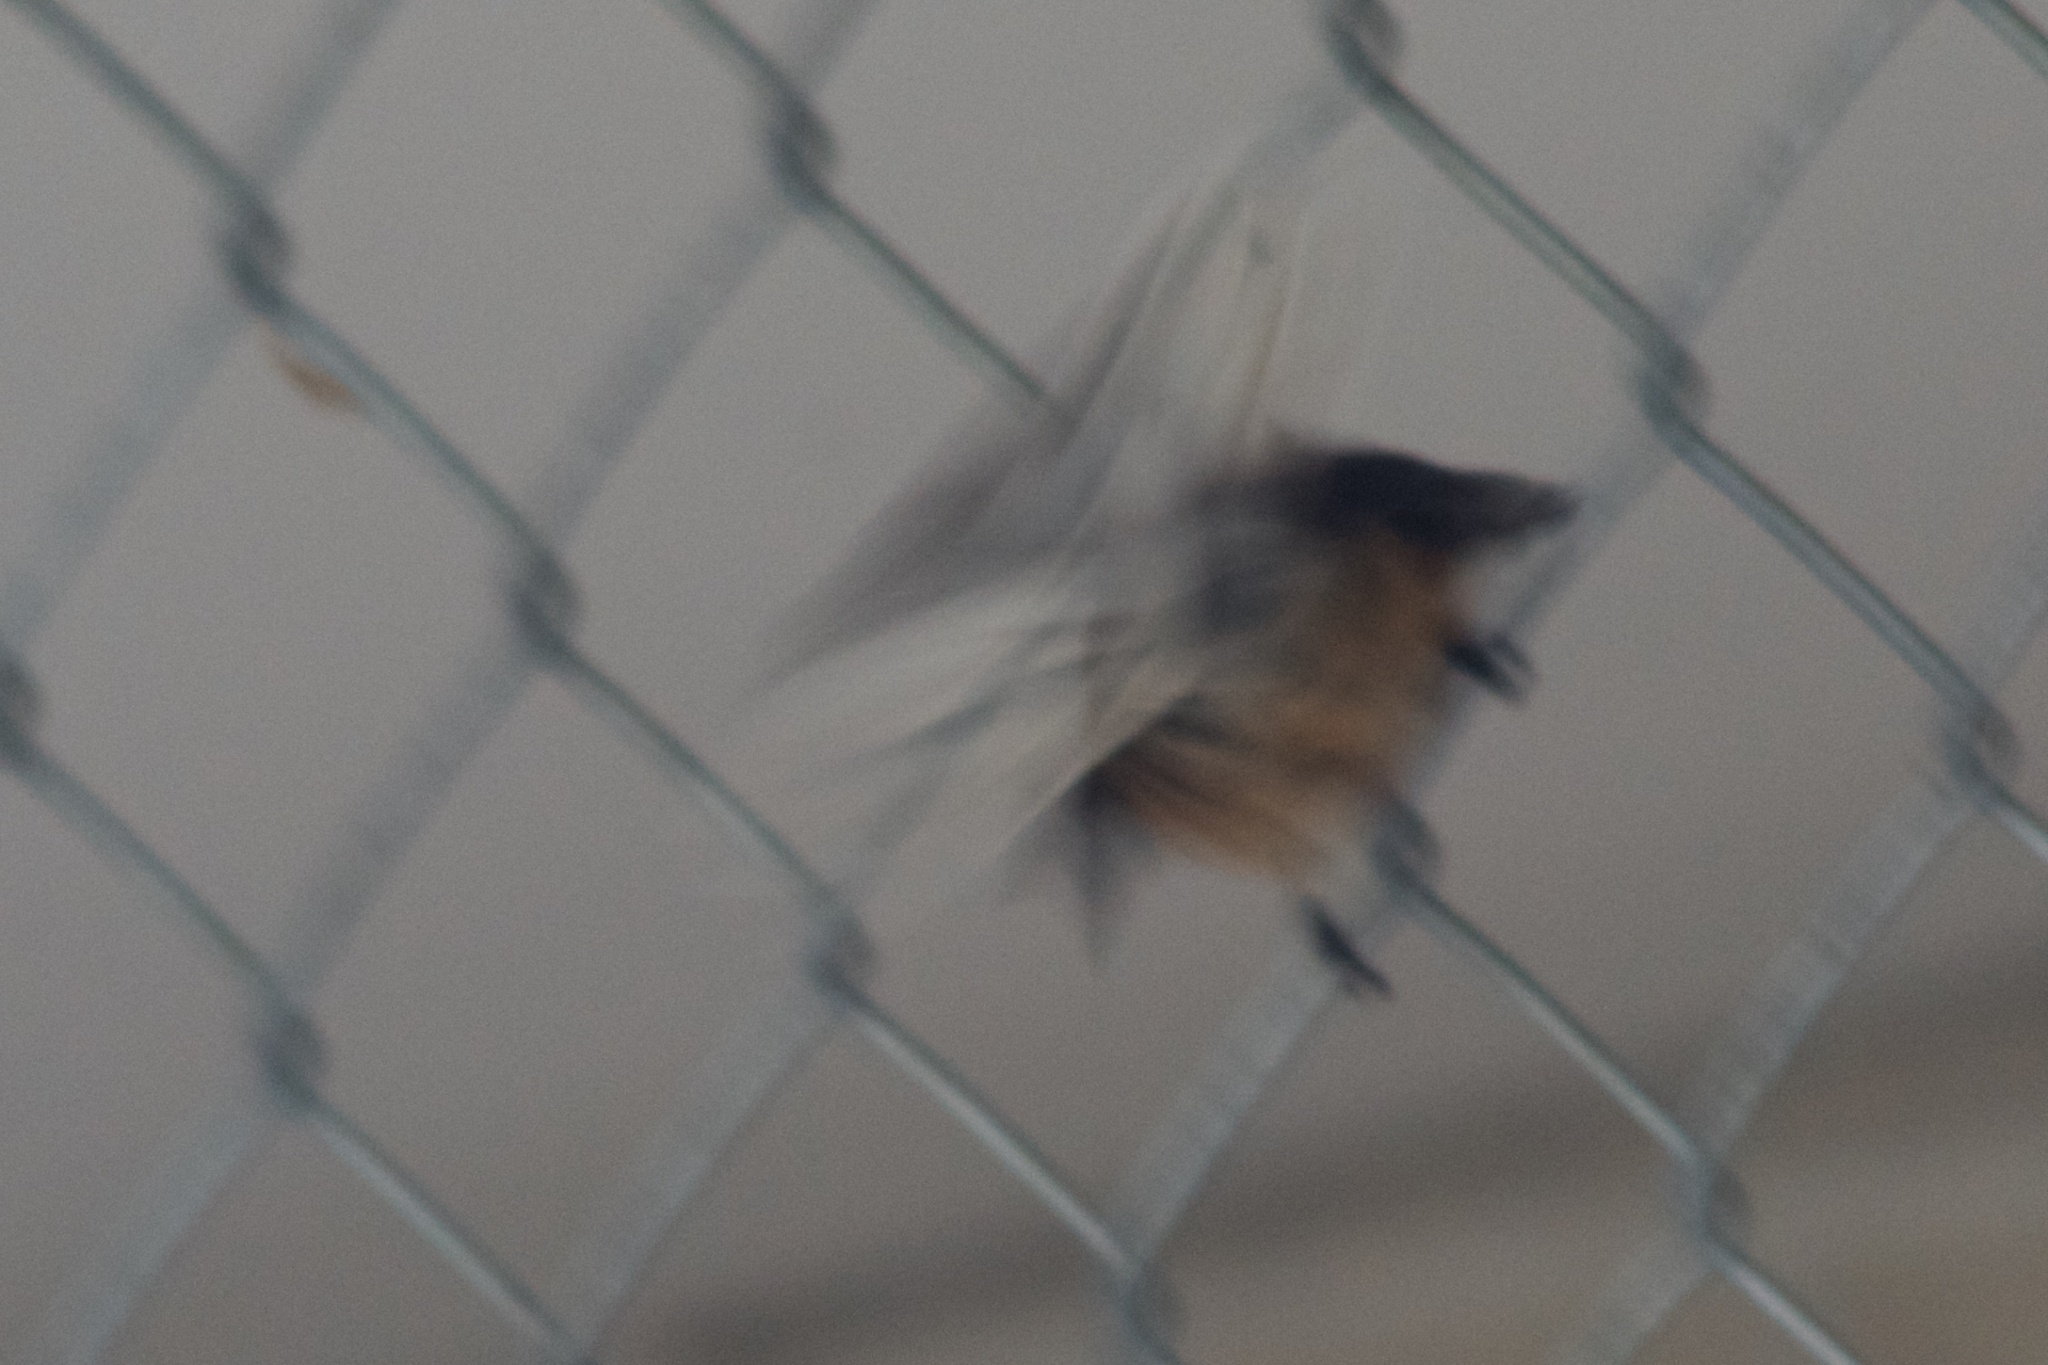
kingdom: Animalia
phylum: Chordata
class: Aves
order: Passeriformes
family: Rhipiduridae
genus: Rhipidura
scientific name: Rhipidura fuliginosa
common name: New zealand fantail
